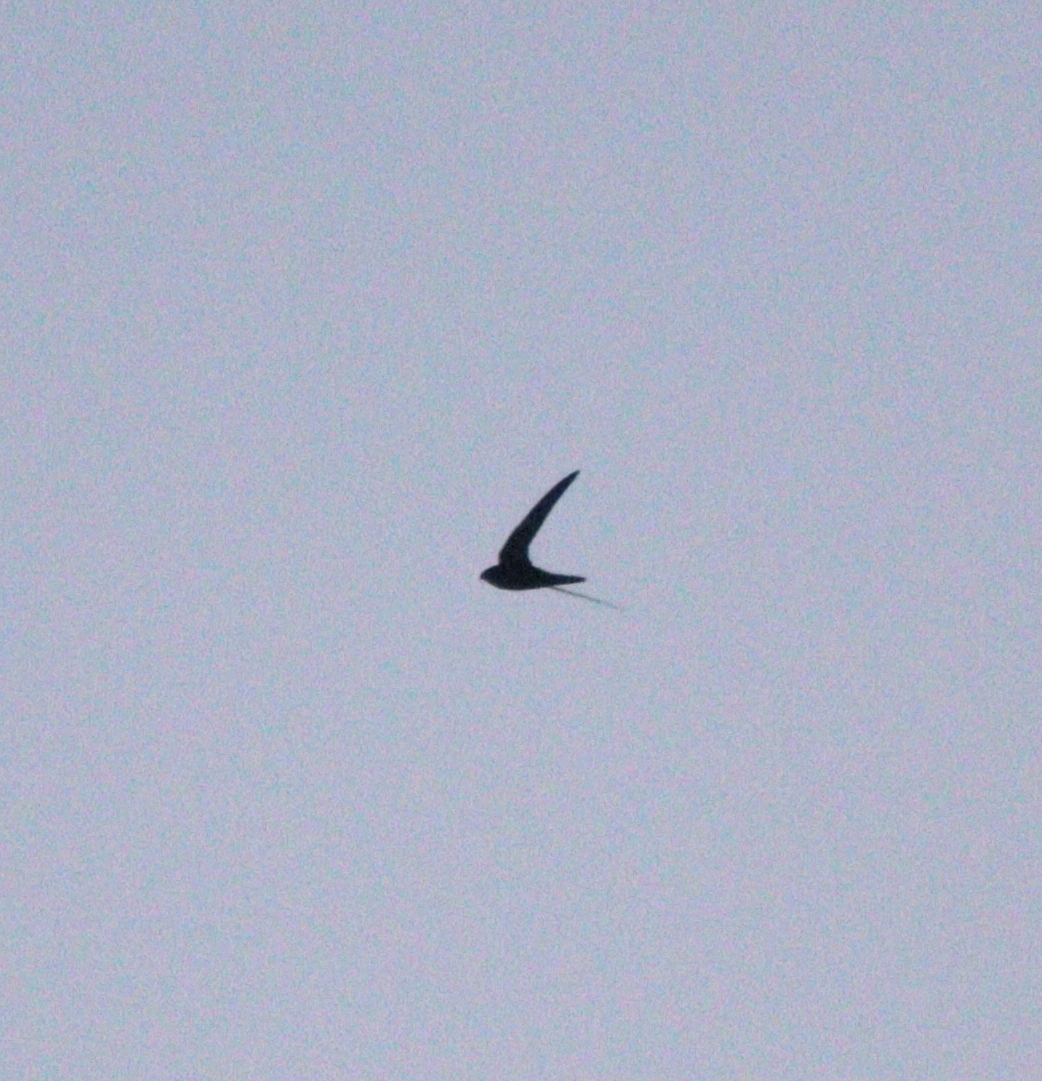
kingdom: Animalia
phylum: Chordata
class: Aves
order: Apodiformes
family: Apodidae
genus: Apus
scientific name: Apus apus
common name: Common swift
